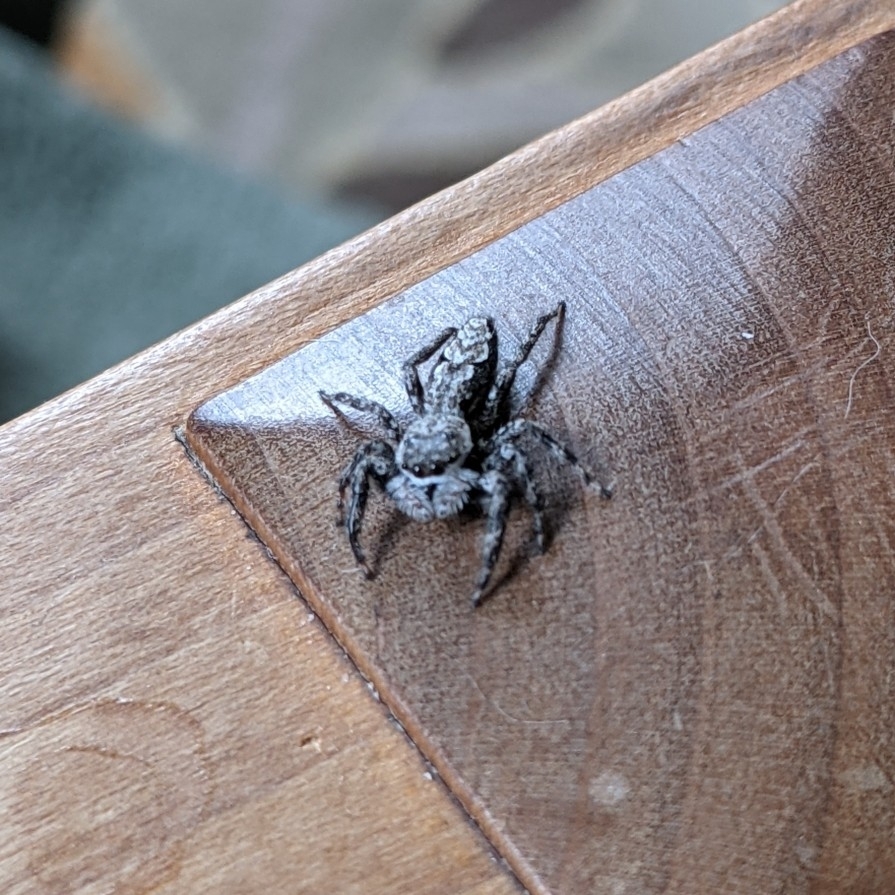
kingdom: Animalia
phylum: Arthropoda
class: Arachnida
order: Araneae
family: Salticidae
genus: Platycryptus
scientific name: Platycryptus undatus
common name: Tan jumping spider
